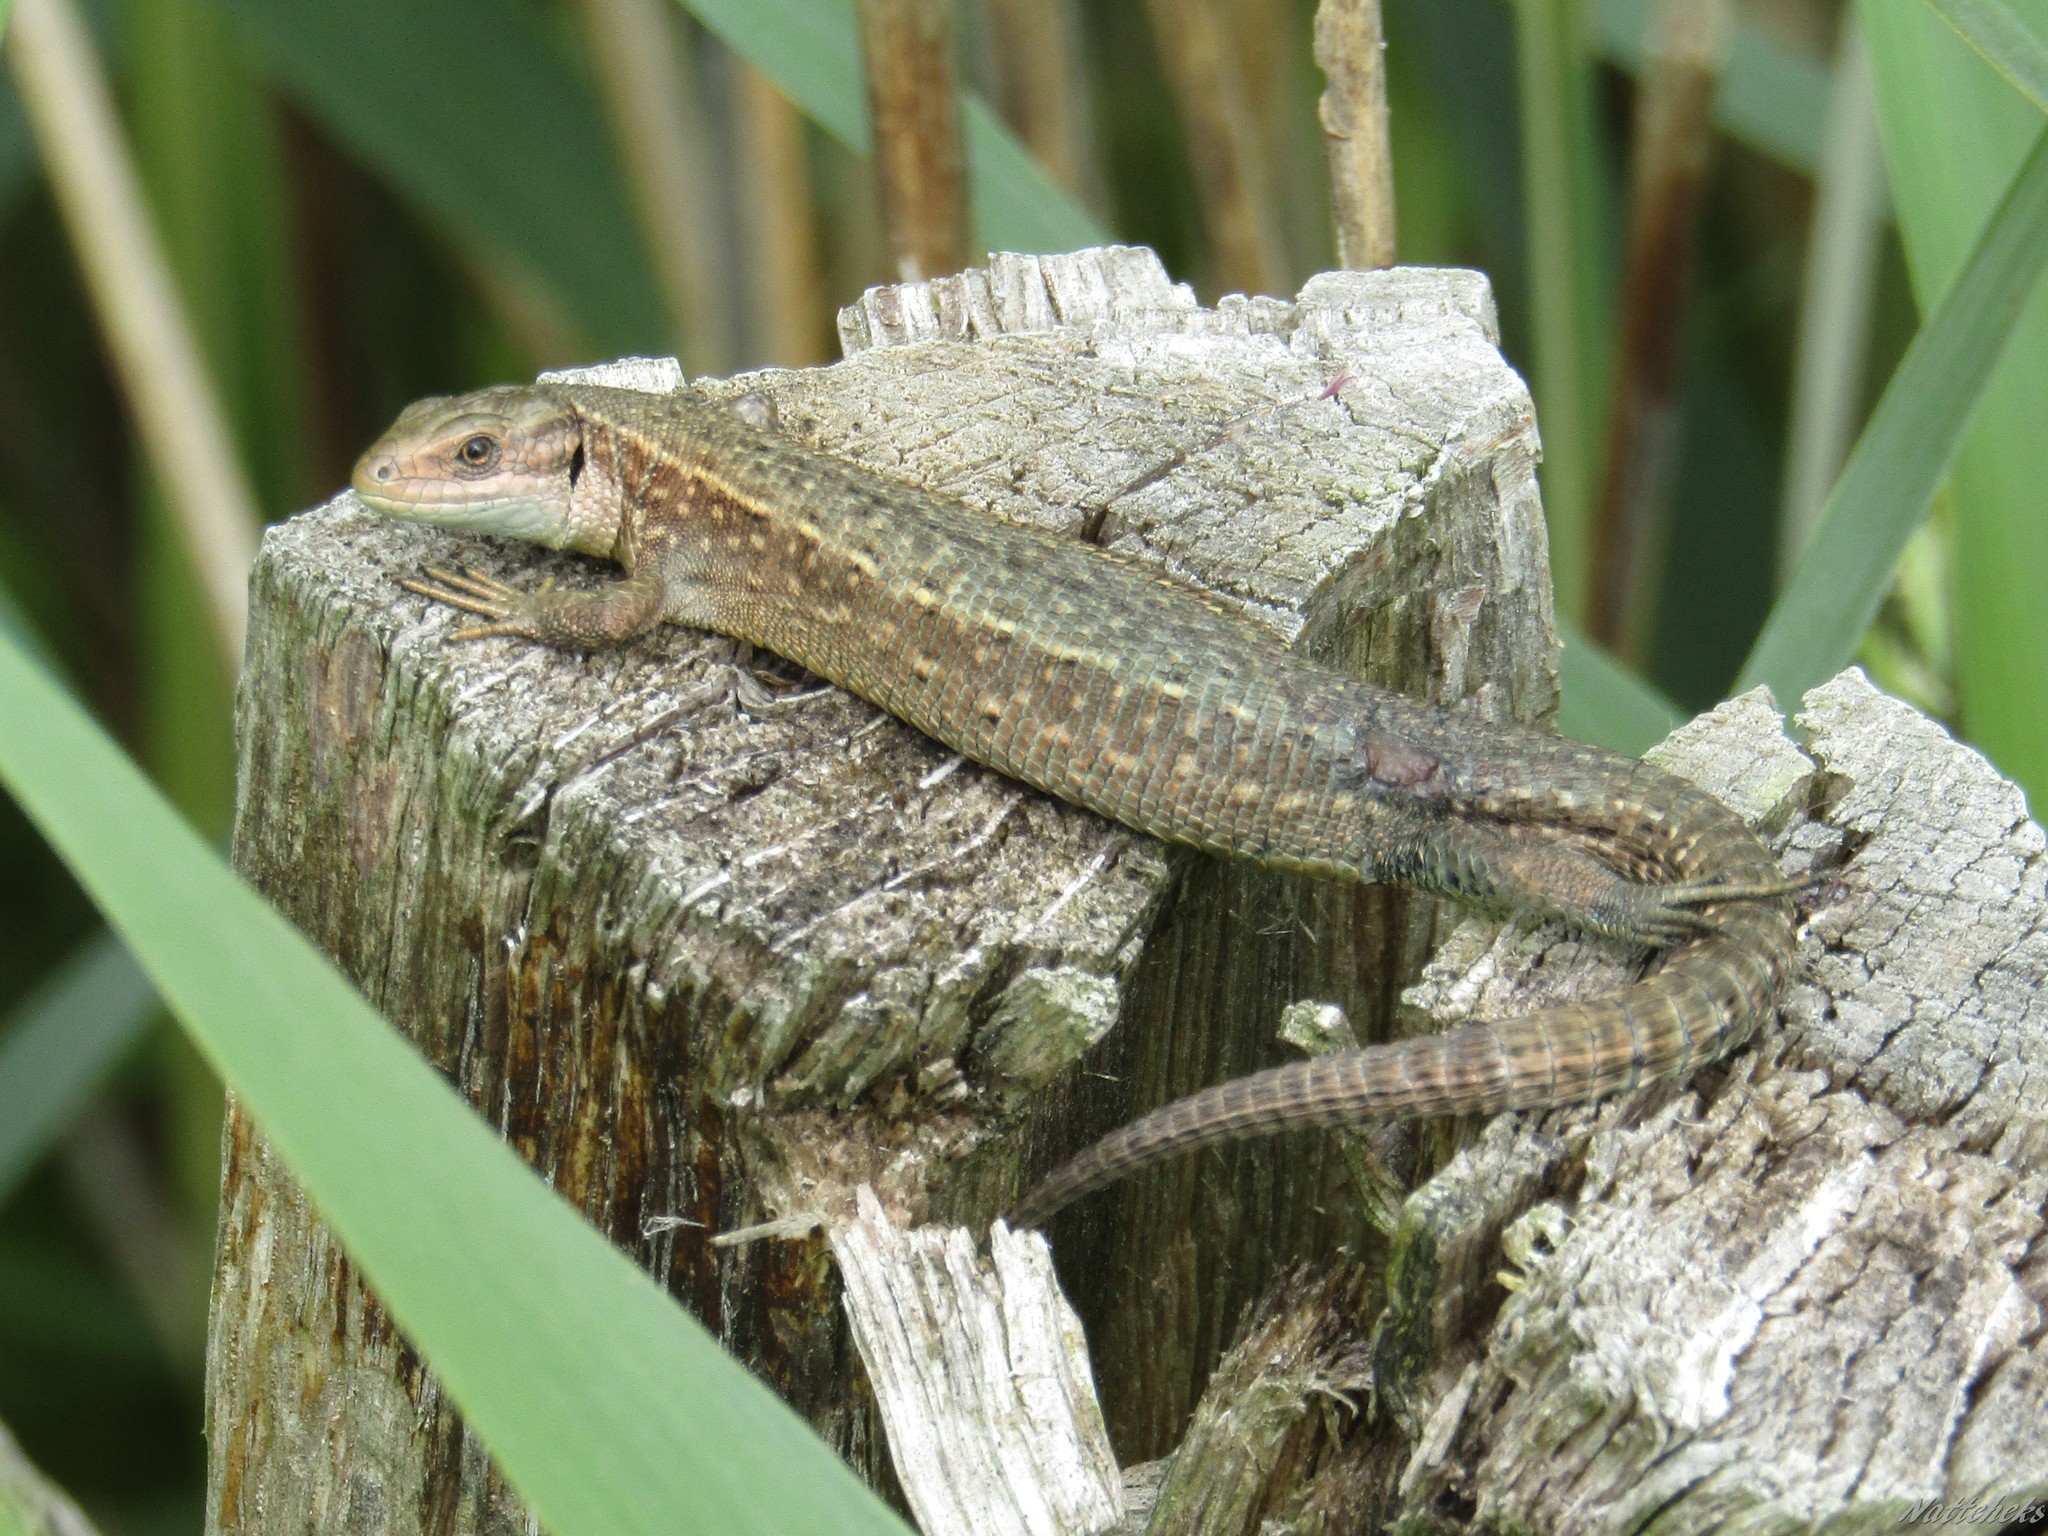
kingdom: Animalia
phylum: Chordata
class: Squamata
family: Lacertidae
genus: Zootoca
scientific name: Zootoca vivipara
